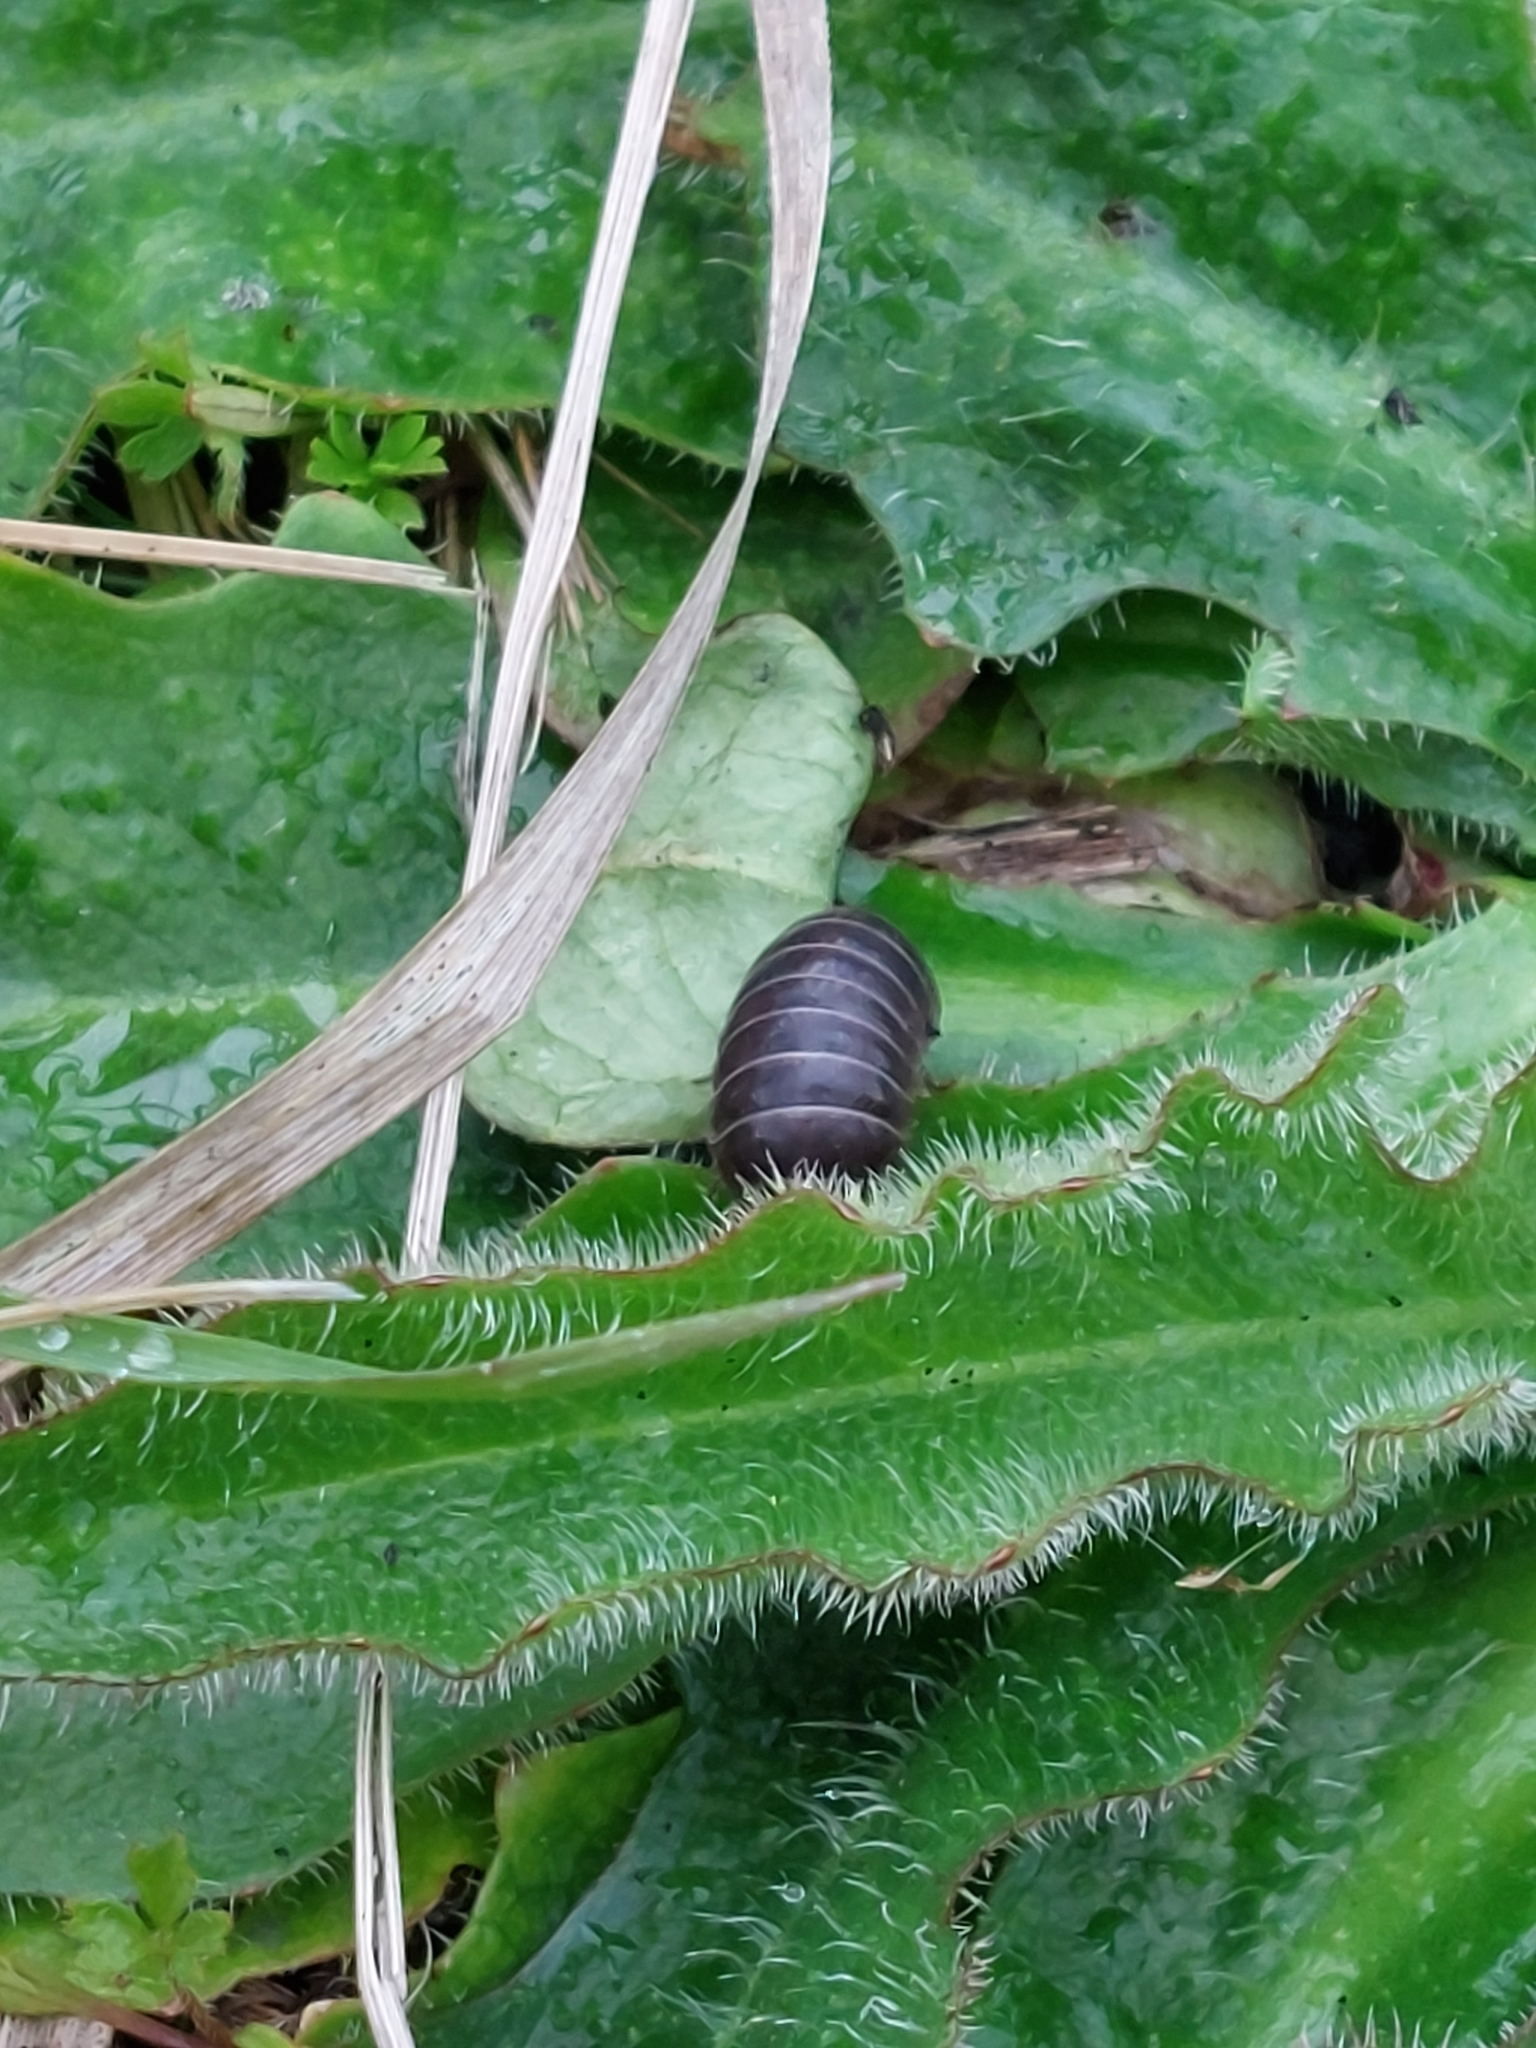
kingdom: Animalia
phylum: Arthropoda
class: Malacostraca
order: Isopoda
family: Armadillidiidae
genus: Armadillidium
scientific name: Armadillidium vulgare
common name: Common pill woodlouse
